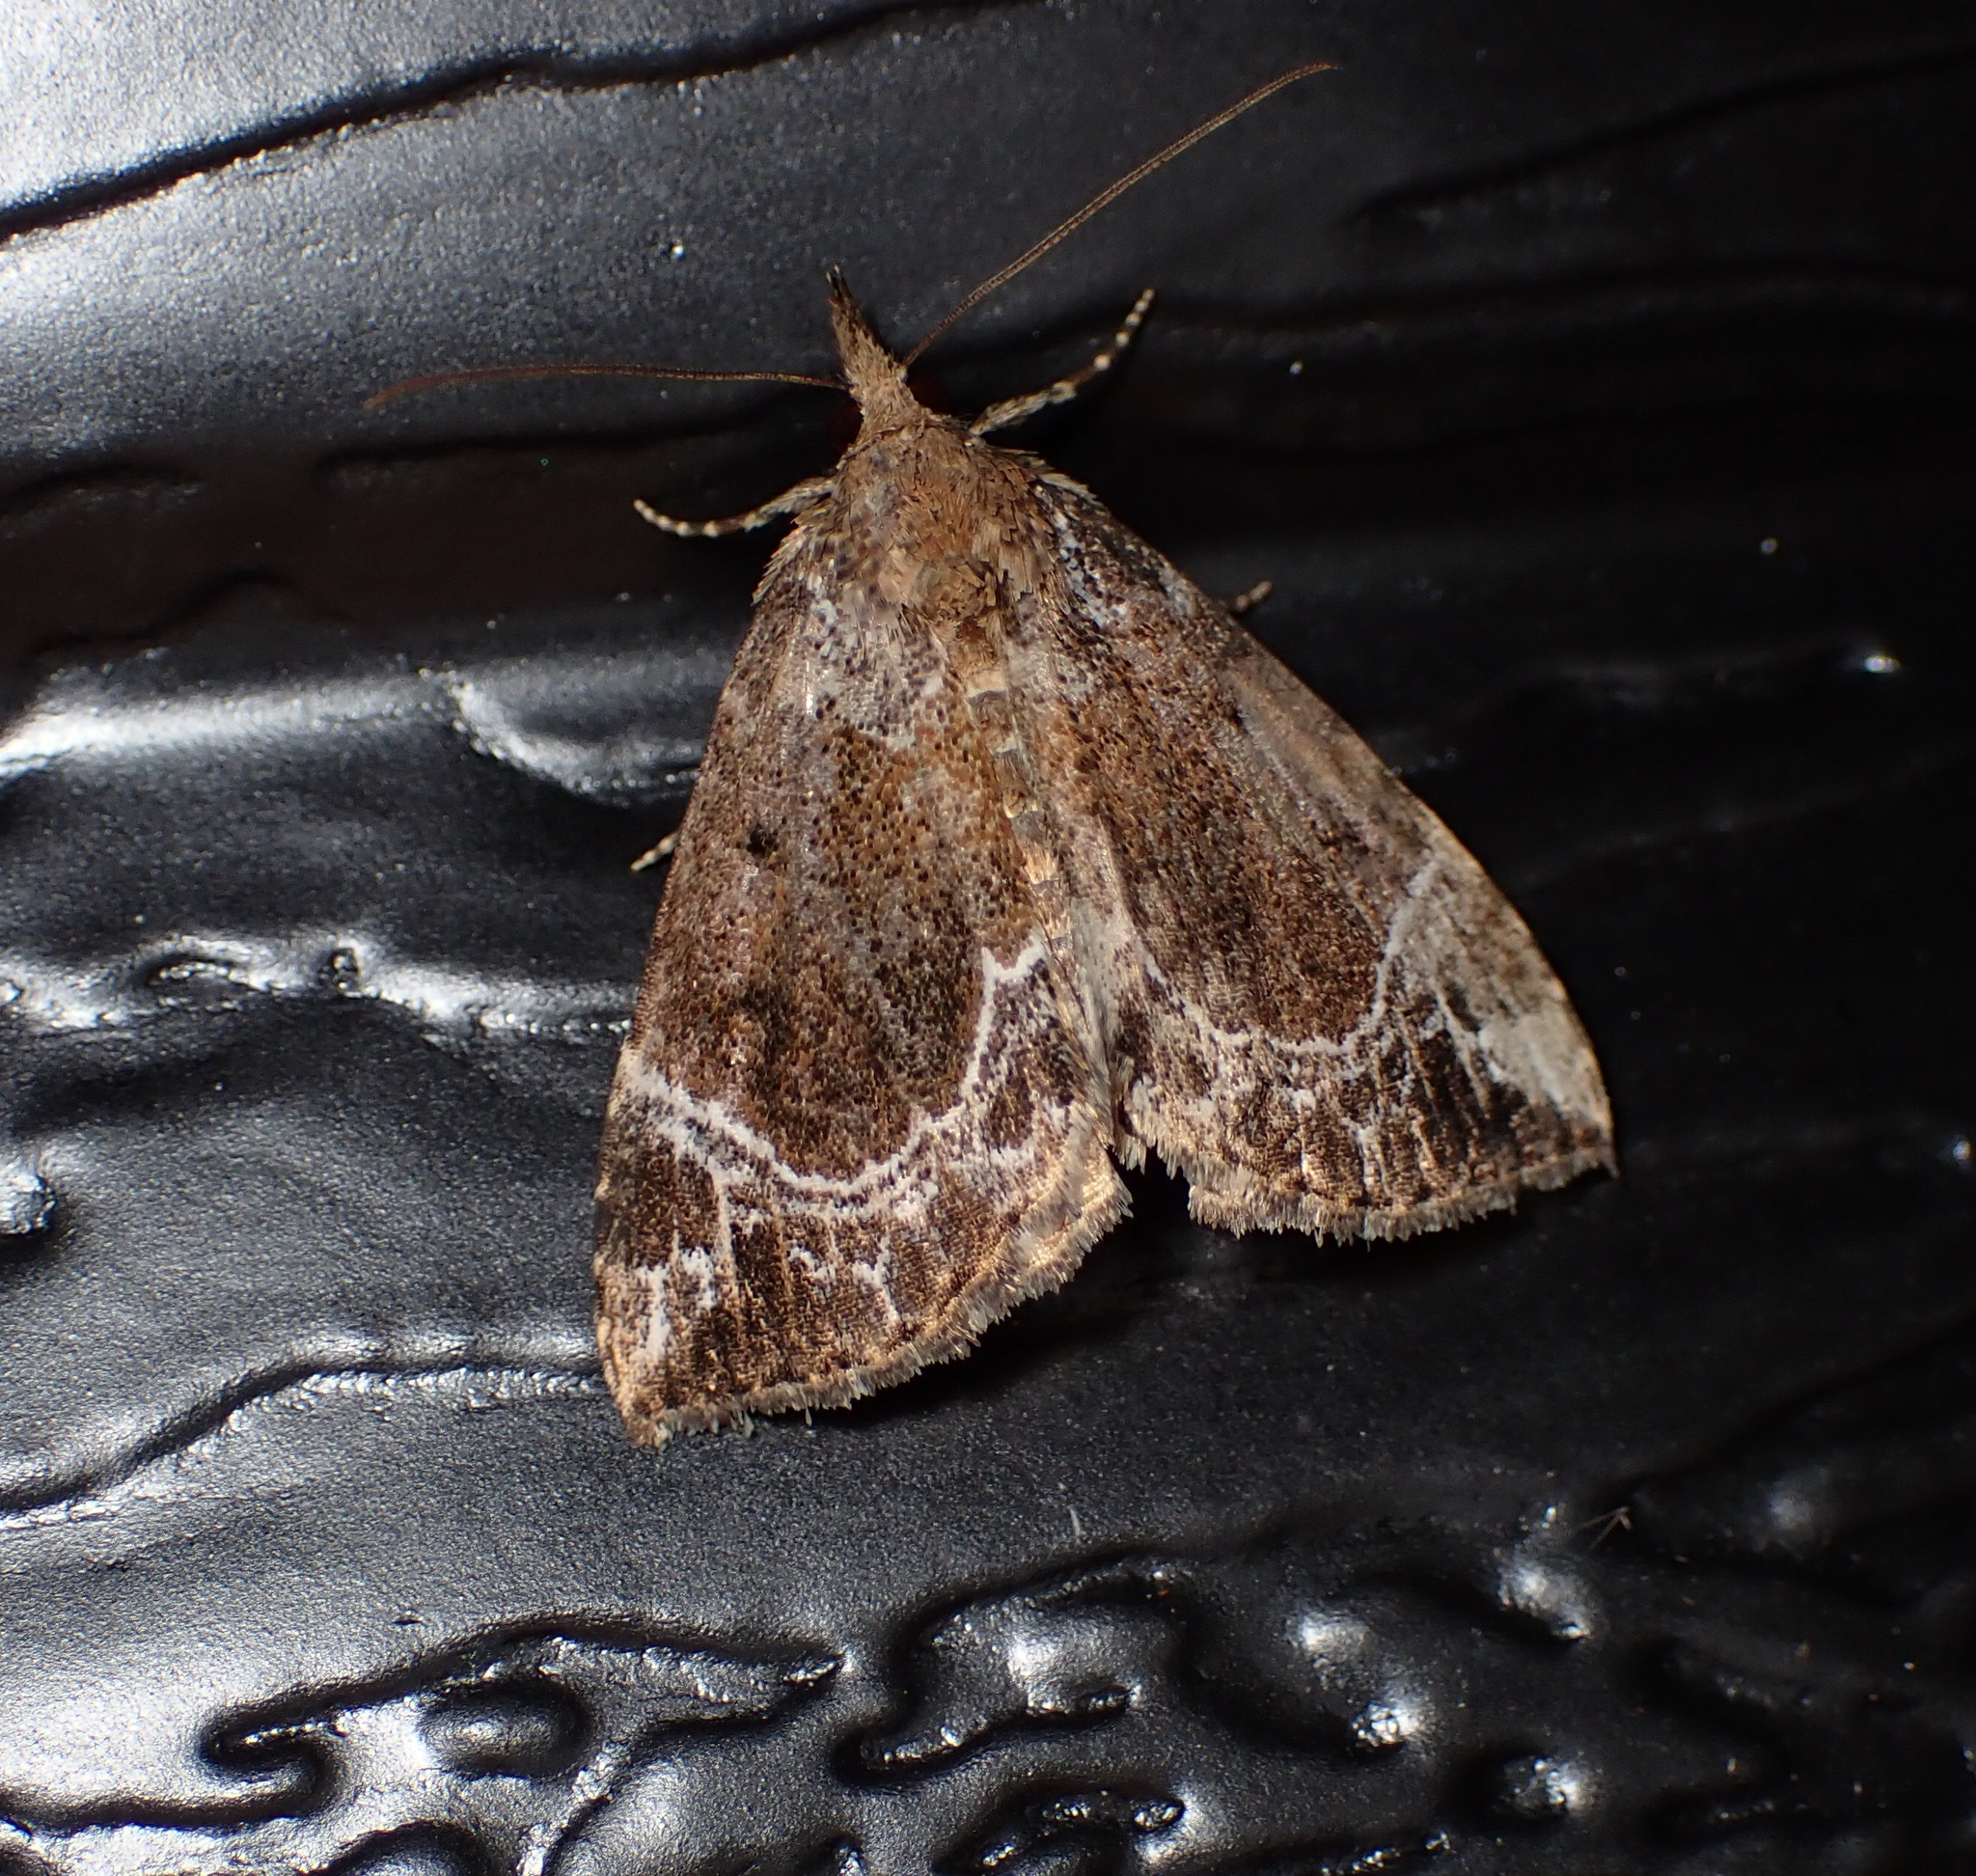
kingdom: Animalia
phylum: Arthropoda
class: Insecta
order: Lepidoptera
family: Erebidae
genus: Hypena
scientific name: Hypena abalienalis
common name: White-lined snout
